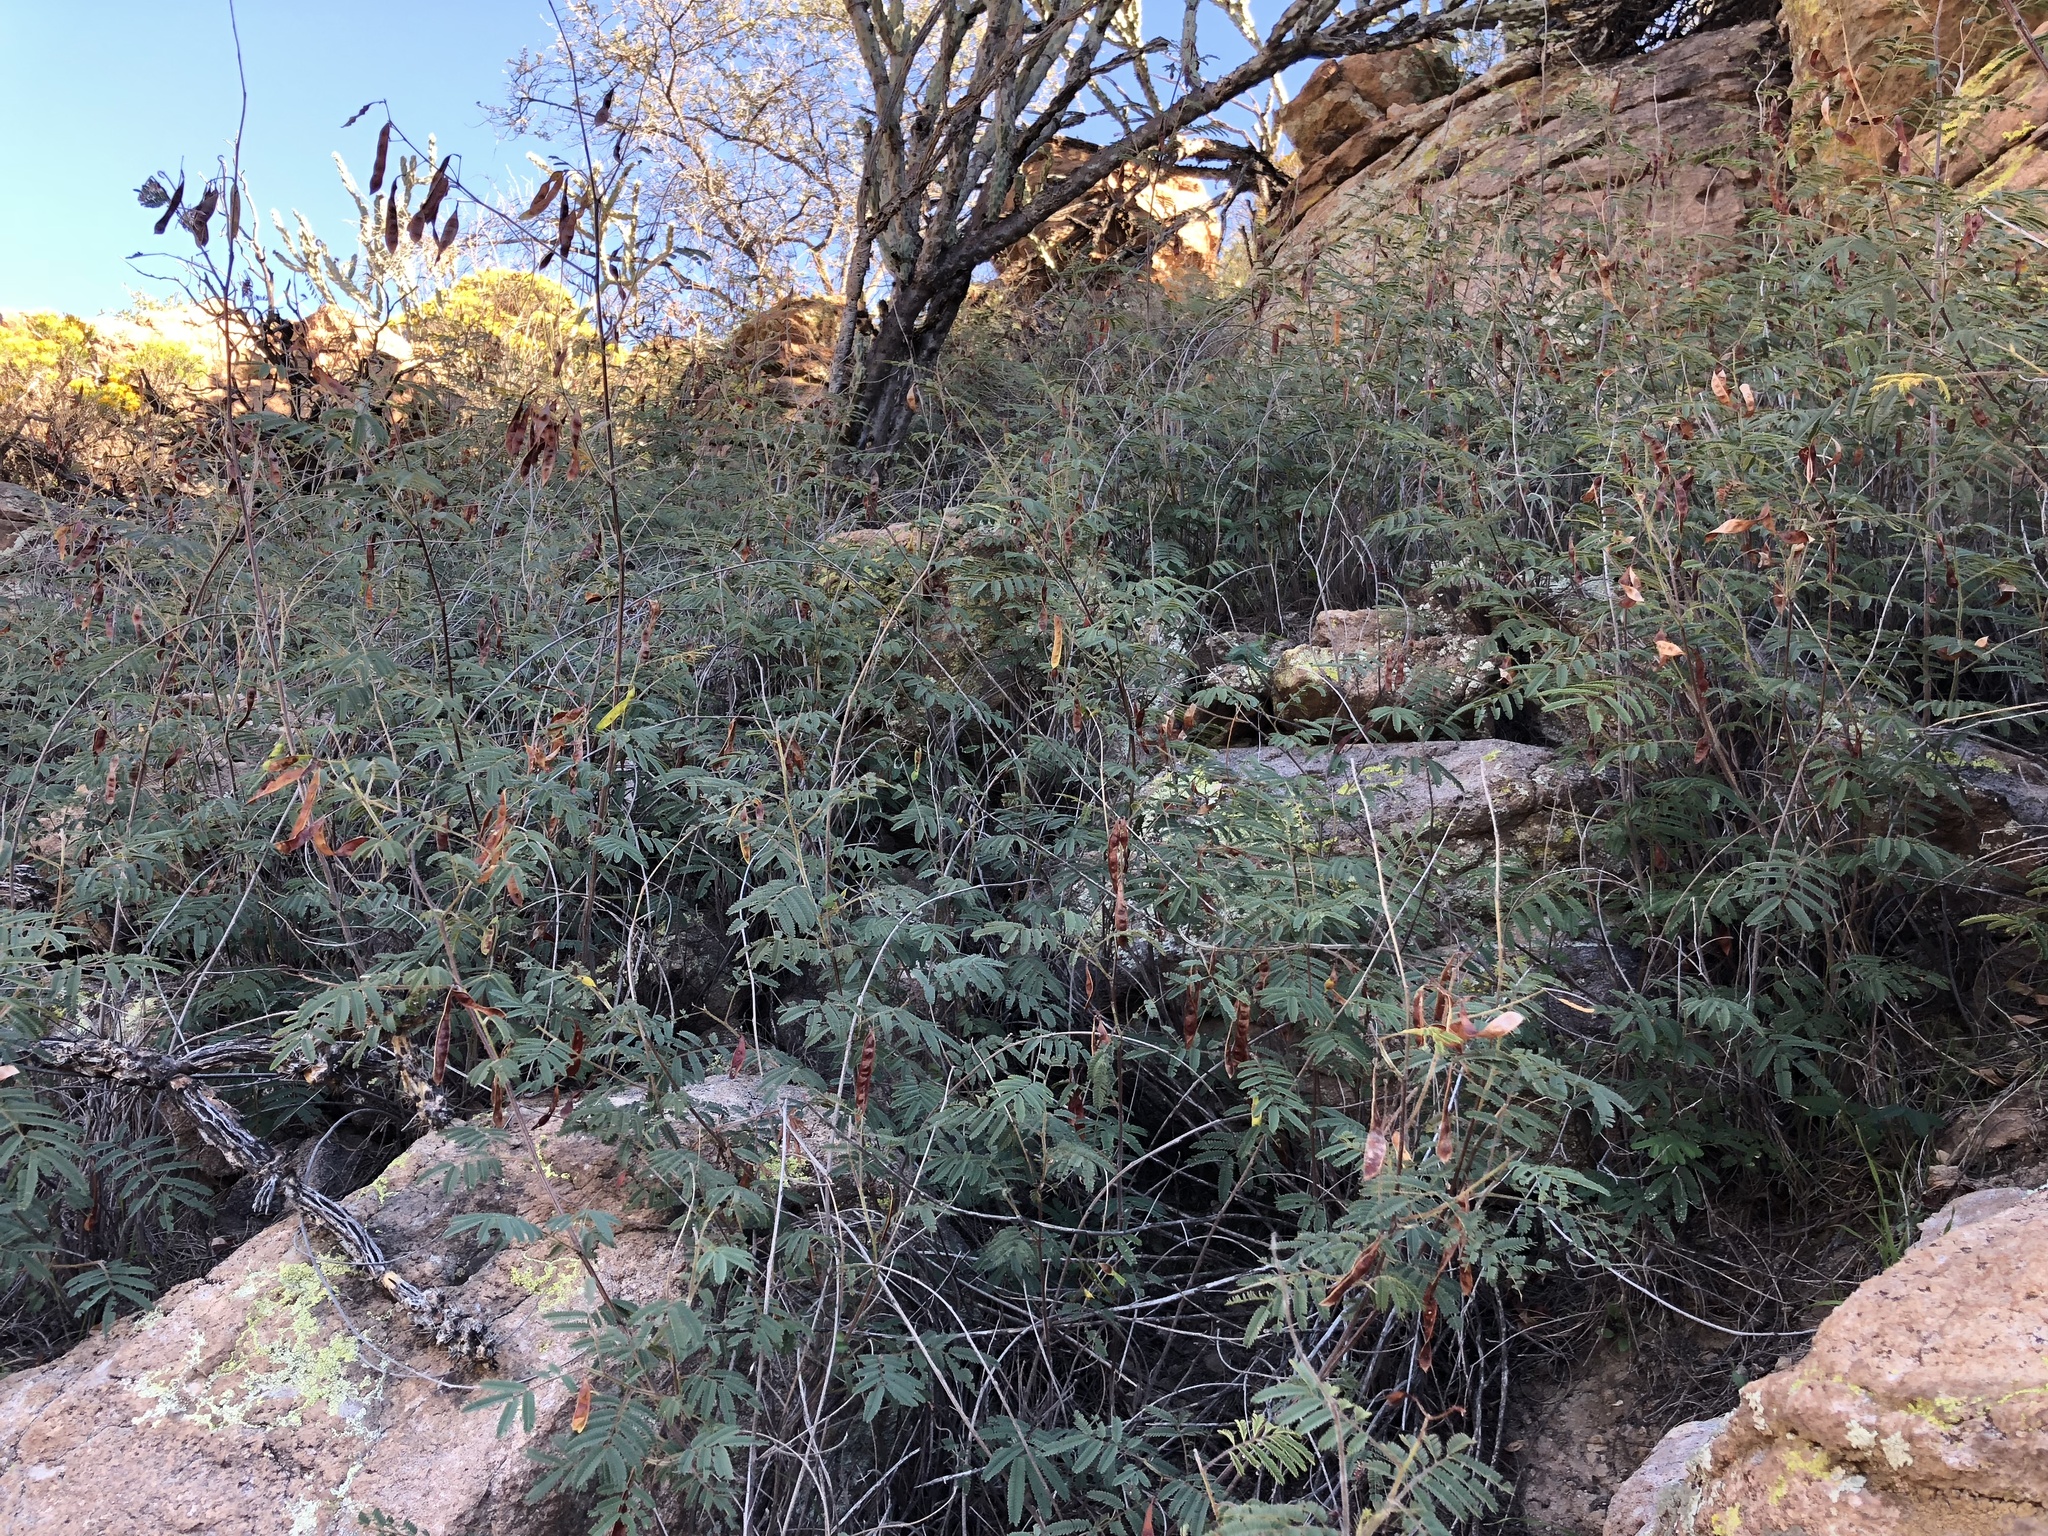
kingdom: Plantae
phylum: Tracheophyta
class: Magnoliopsida
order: Fabales
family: Fabaceae
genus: Acaciella
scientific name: Acaciella angustissima
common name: Prairie acacia
